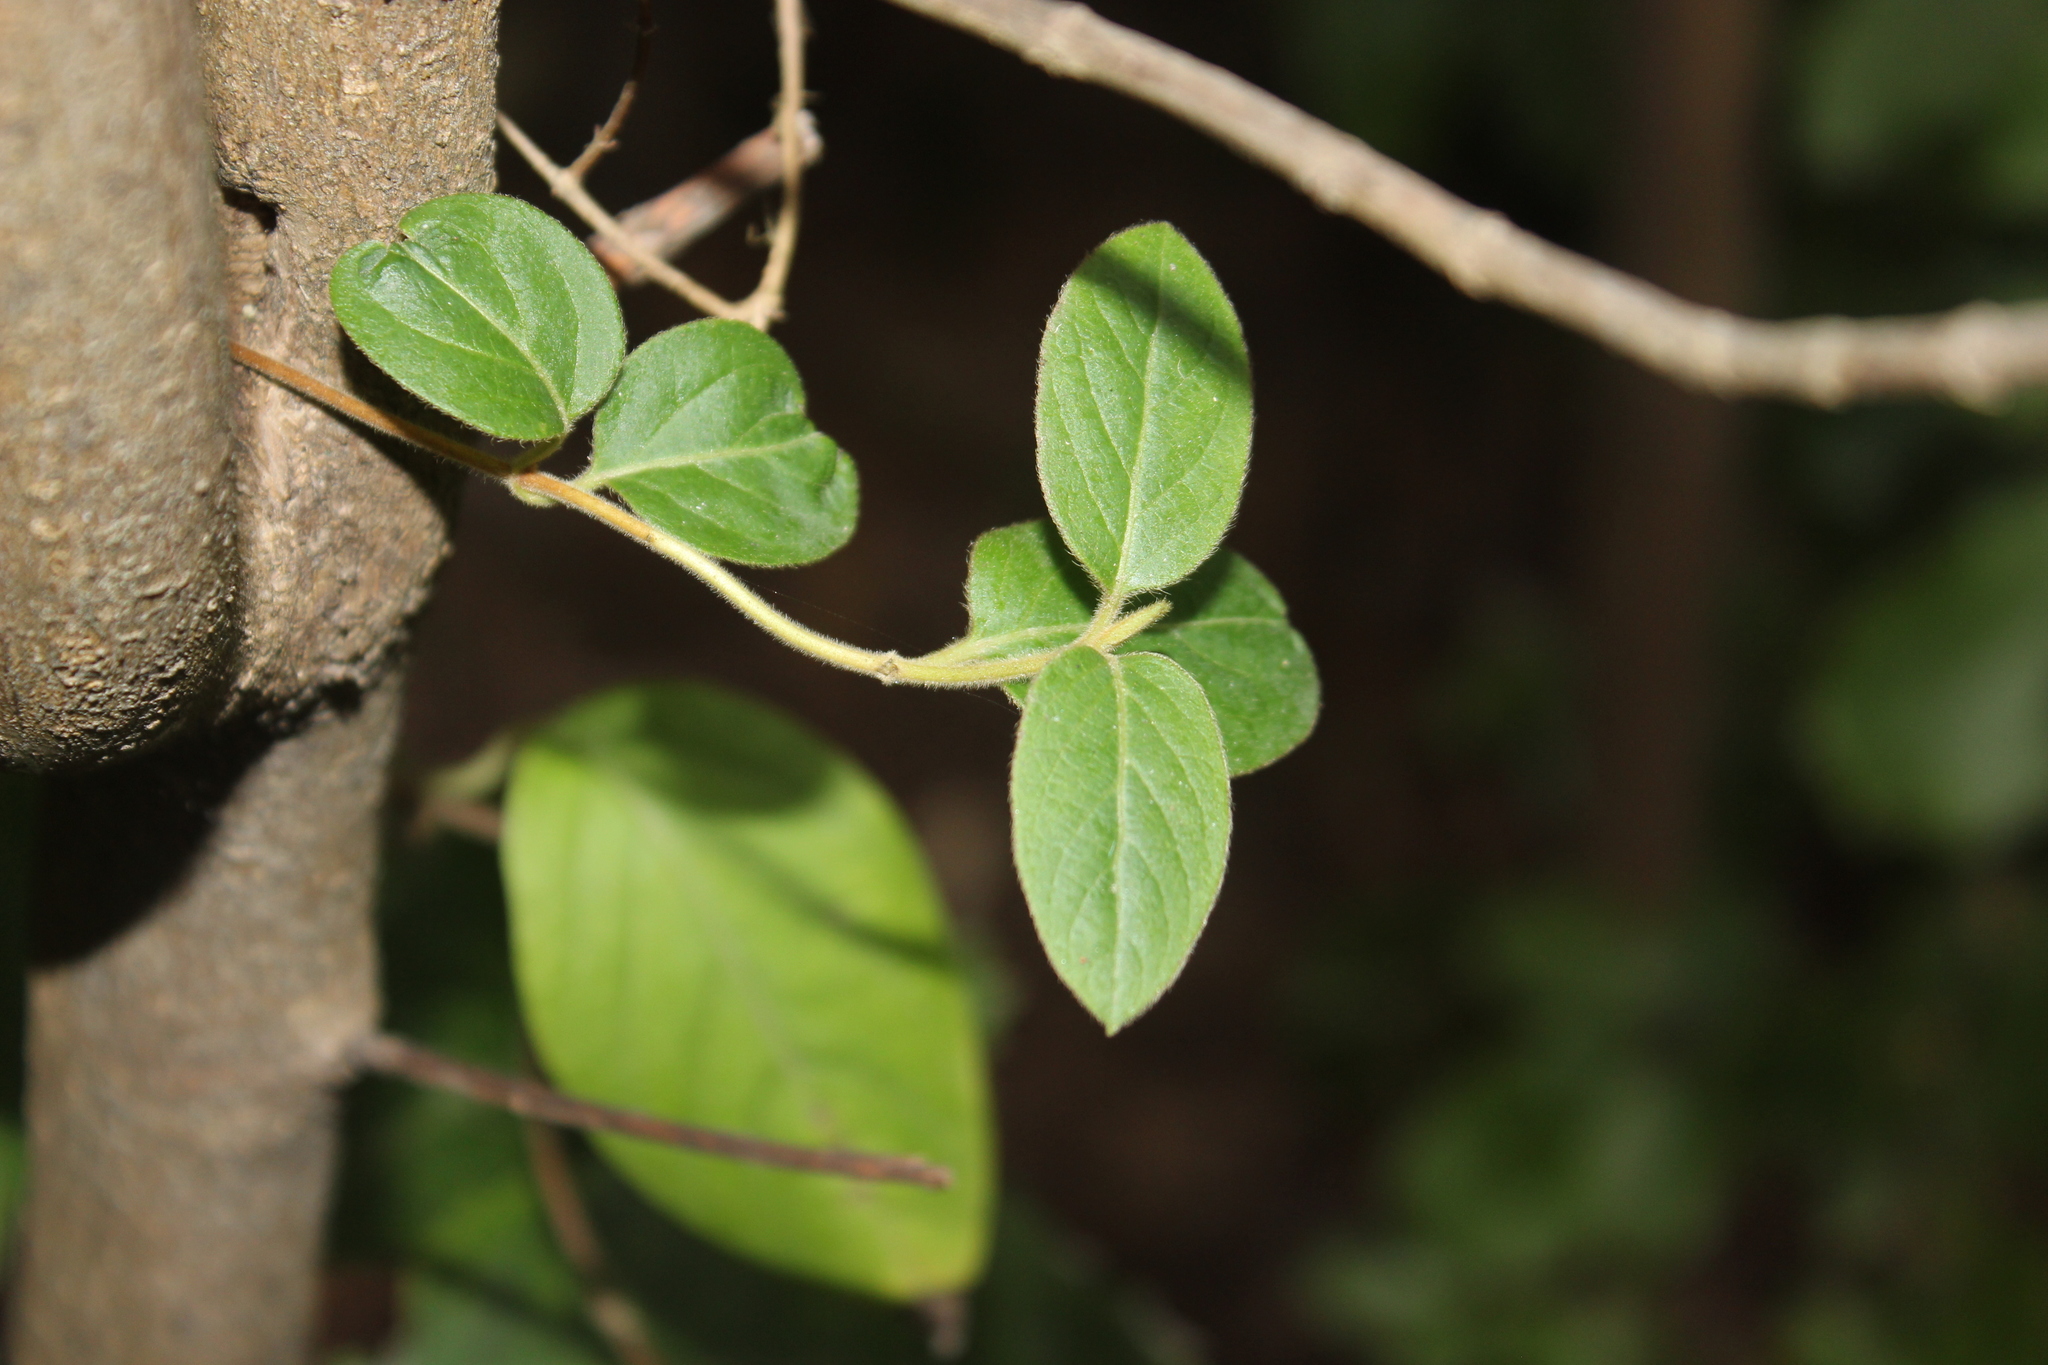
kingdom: Plantae
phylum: Tracheophyta
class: Magnoliopsida
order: Dipsacales
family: Caprifoliaceae
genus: Lonicera
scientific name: Lonicera japonica
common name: Japanese honeysuckle
